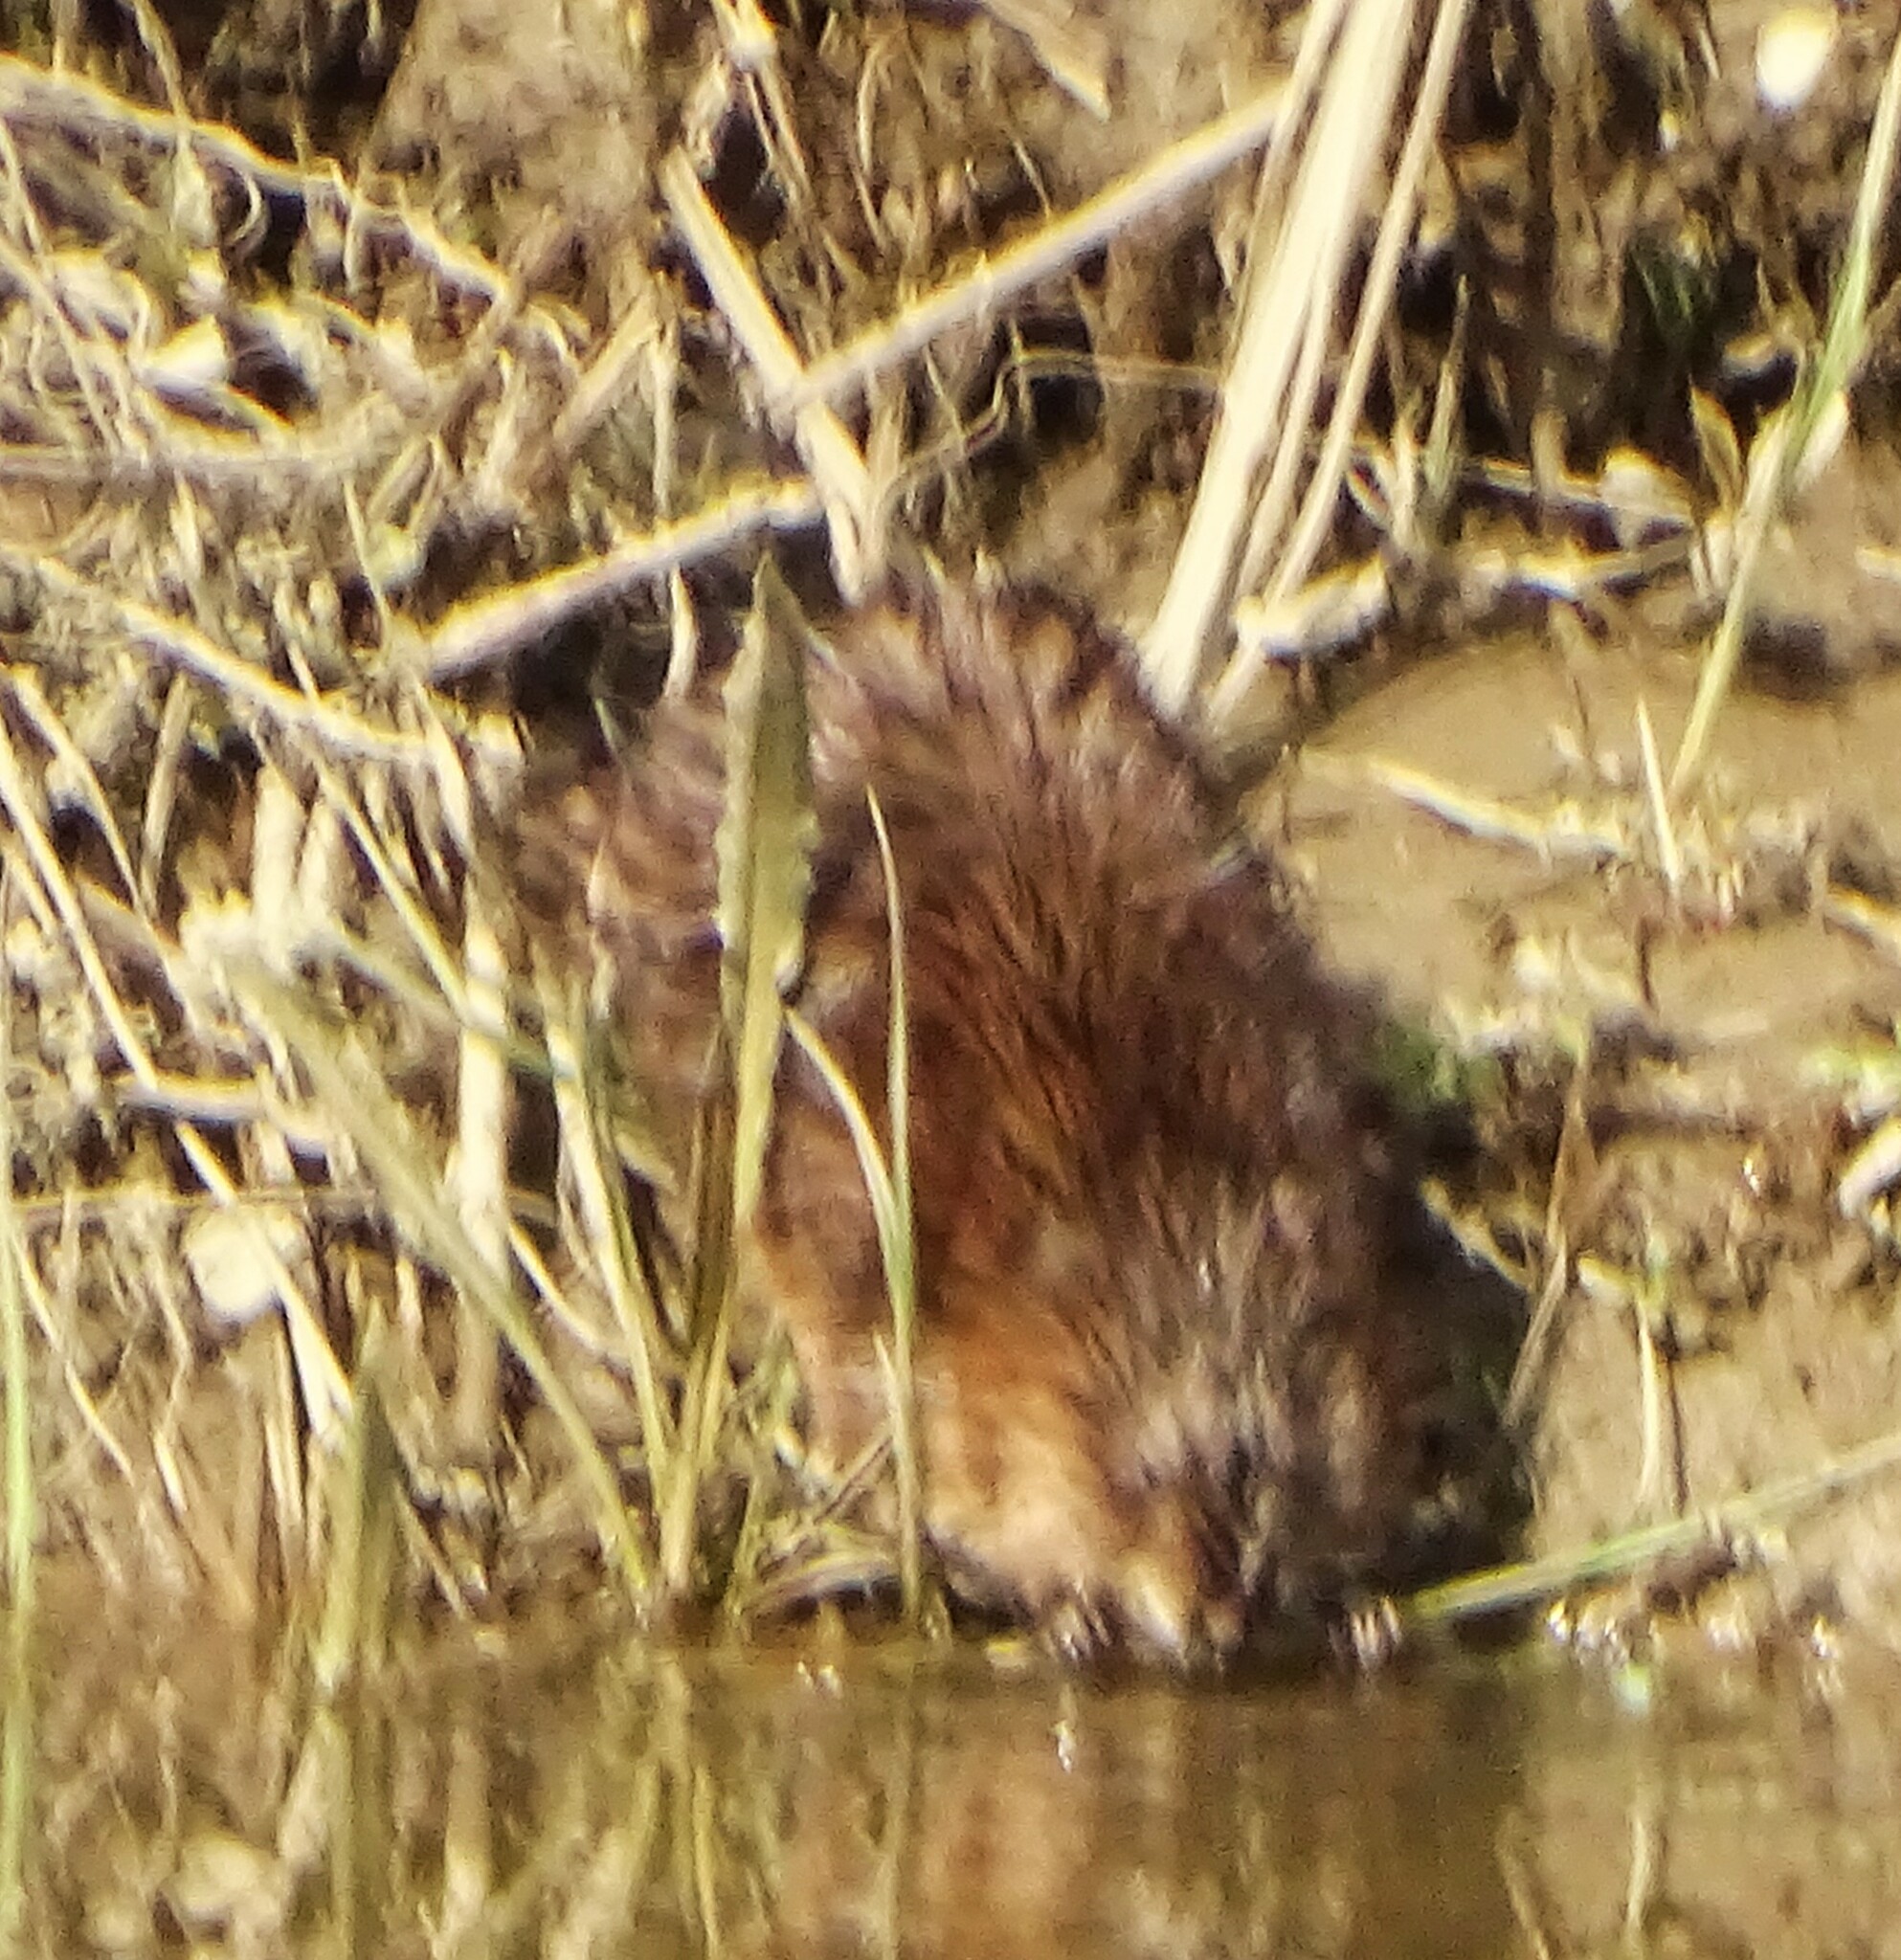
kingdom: Animalia
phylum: Chordata
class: Mammalia
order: Rodentia
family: Cricetidae
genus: Ondatra
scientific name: Ondatra zibethicus
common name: Muskrat
